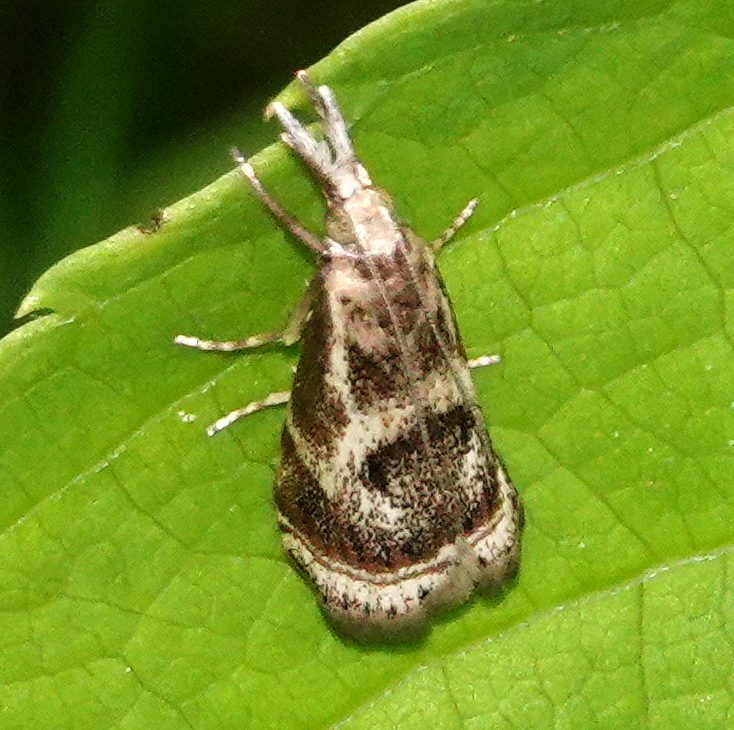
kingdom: Animalia
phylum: Arthropoda
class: Insecta
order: Lepidoptera
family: Crambidae
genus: Microcrambus
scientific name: Microcrambus elegans
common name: Elegant grass-veneer
